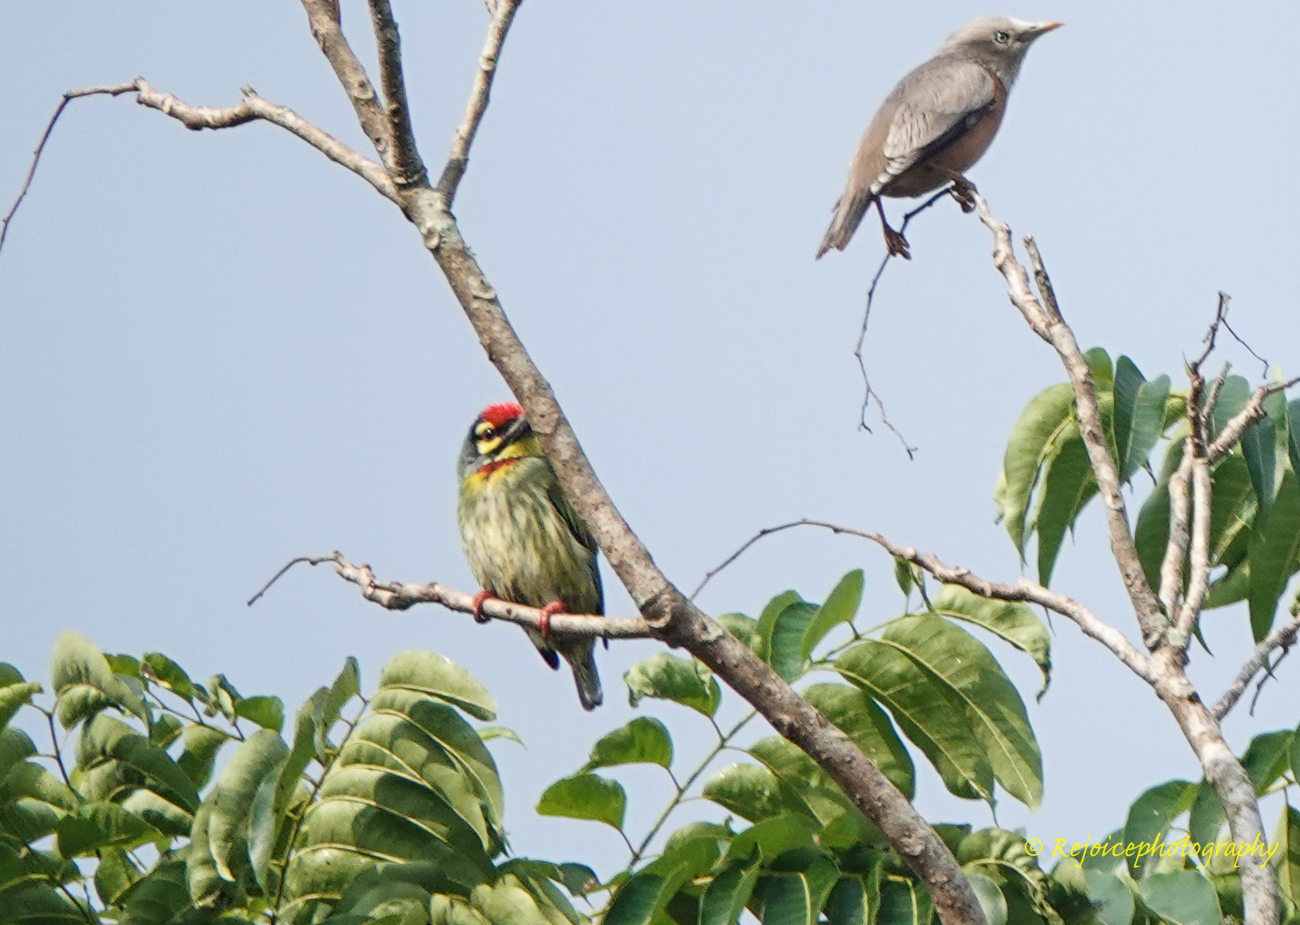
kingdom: Animalia
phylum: Chordata
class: Aves
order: Piciformes
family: Megalaimidae
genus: Psilopogon
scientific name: Psilopogon haemacephalus
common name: Coppersmith barbet
